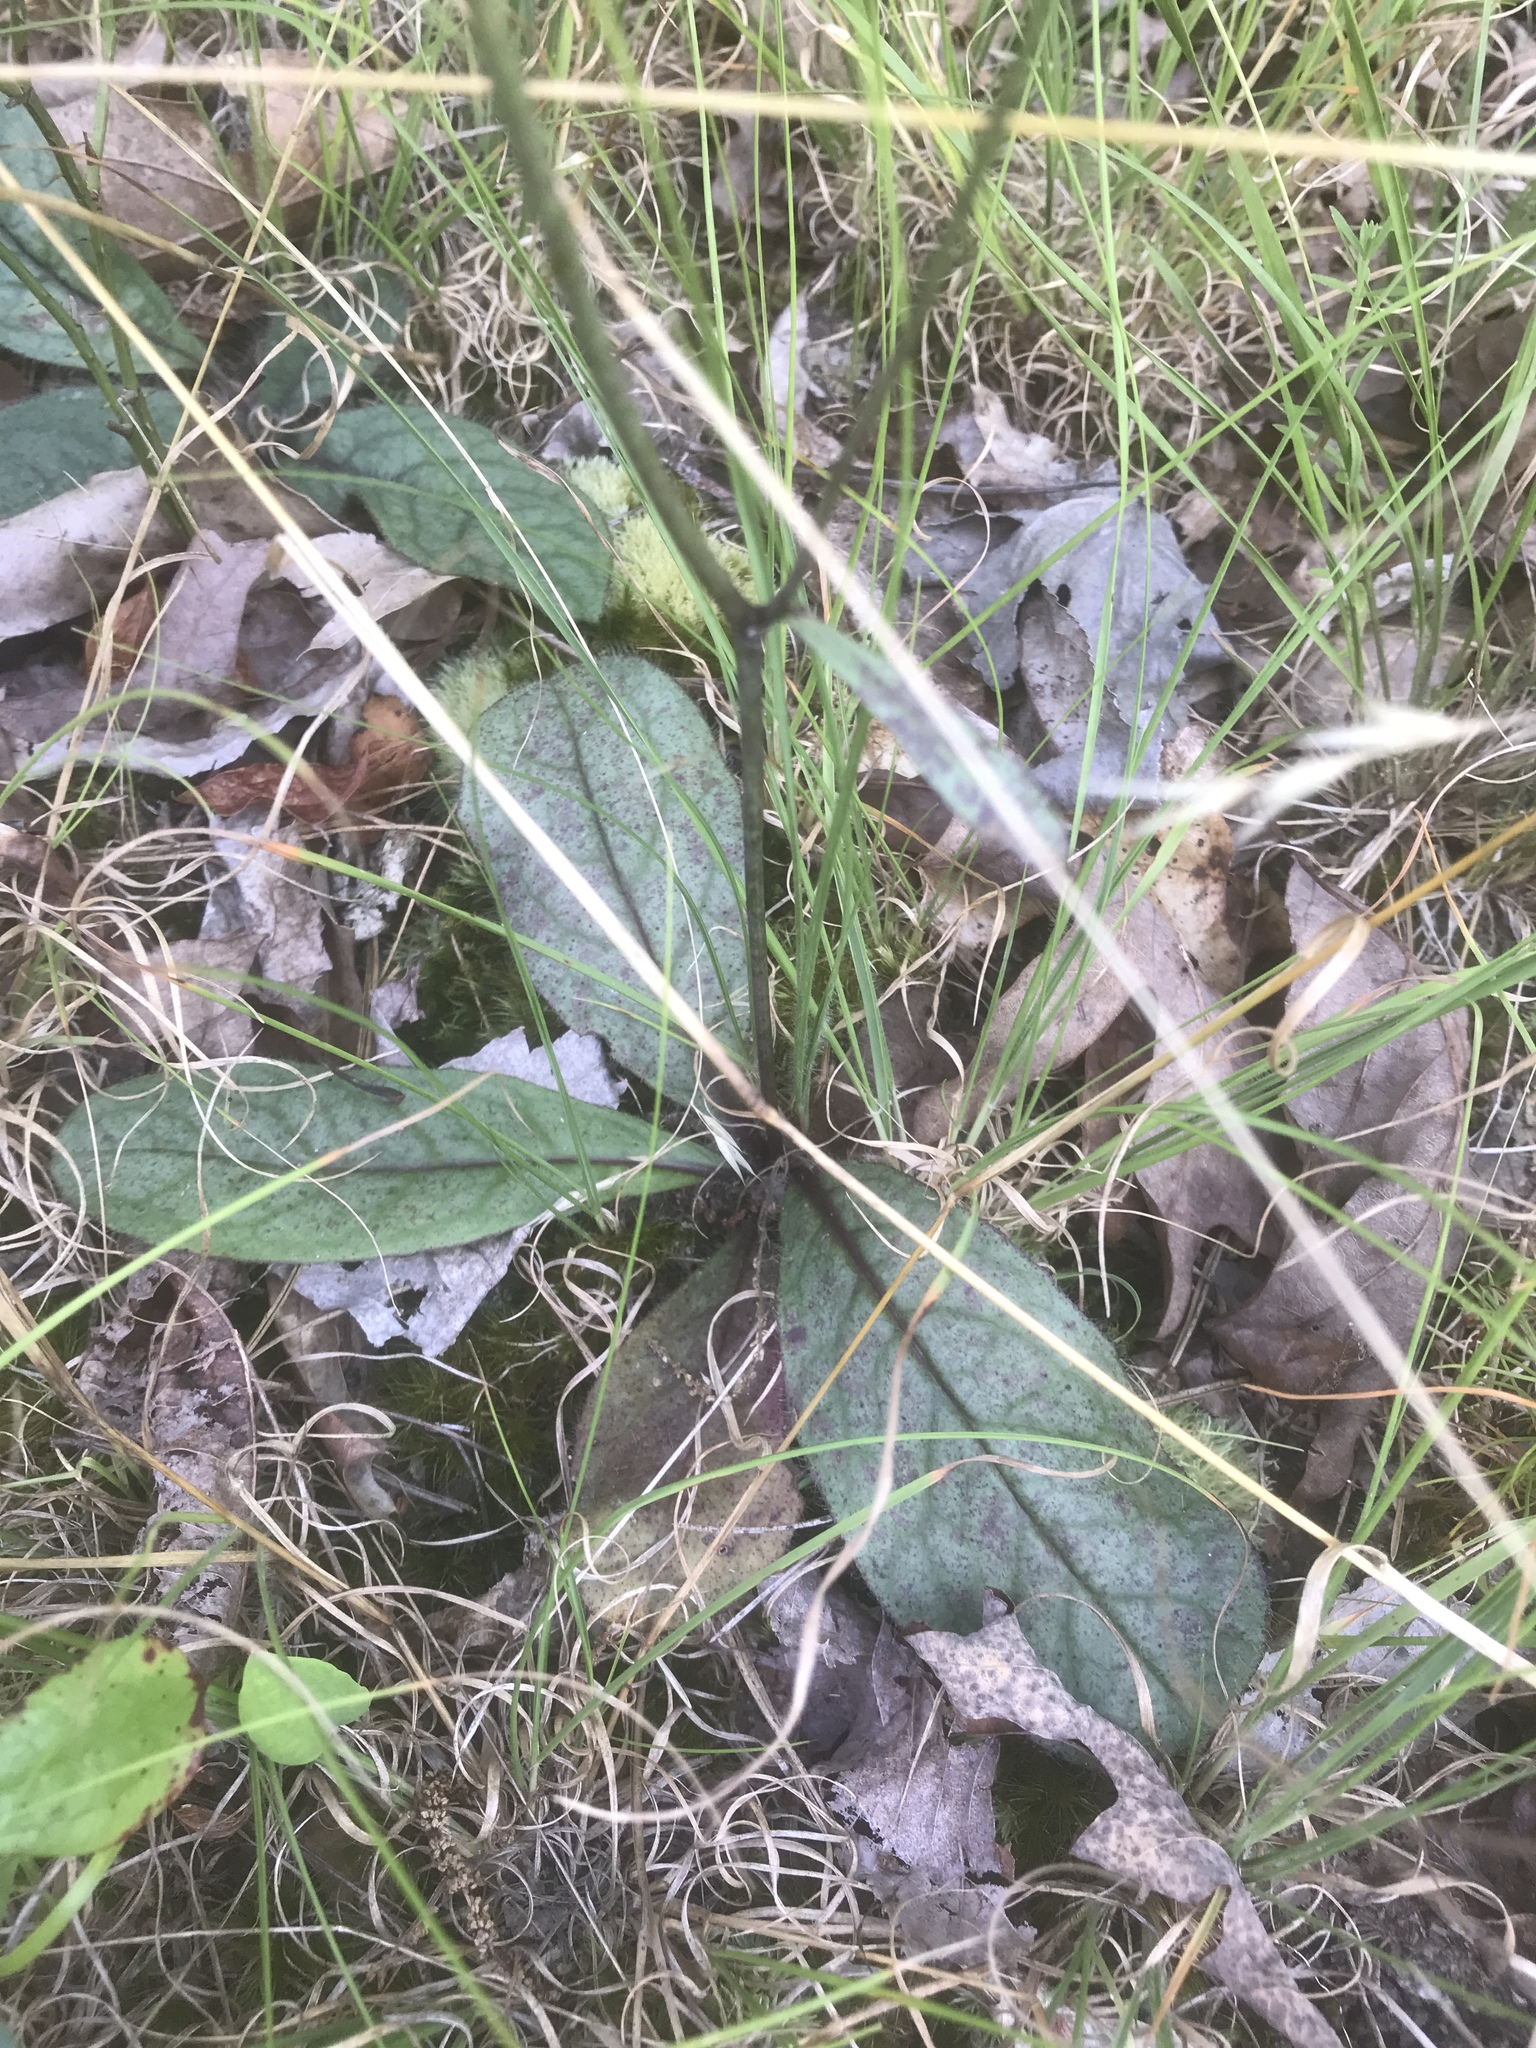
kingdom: Plantae
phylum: Tracheophyta
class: Magnoliopsida
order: Asterales
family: Asteraceae
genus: Hieracium
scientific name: Hieracium venosum
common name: Rattlesnake hawkweed
